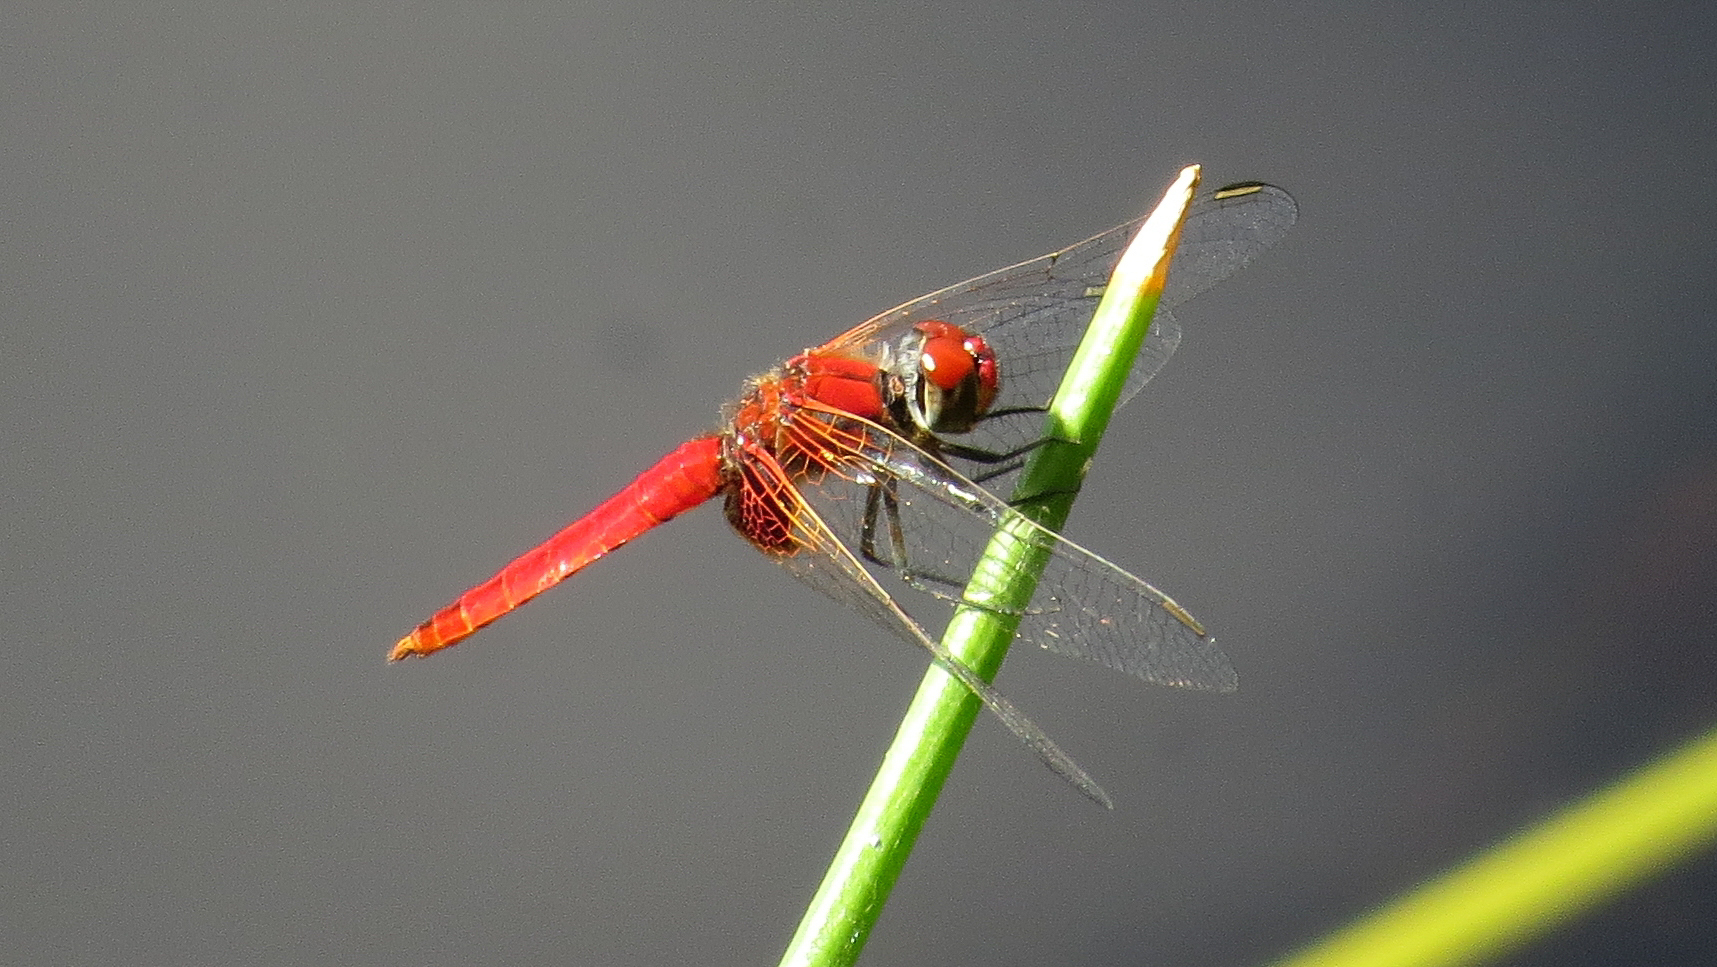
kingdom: Animalia
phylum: Arthropoda
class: Insecta
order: Odonata
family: Libellulidae
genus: Aethriamanta
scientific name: Aethriamanta circumsignata
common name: Square-spot basker
